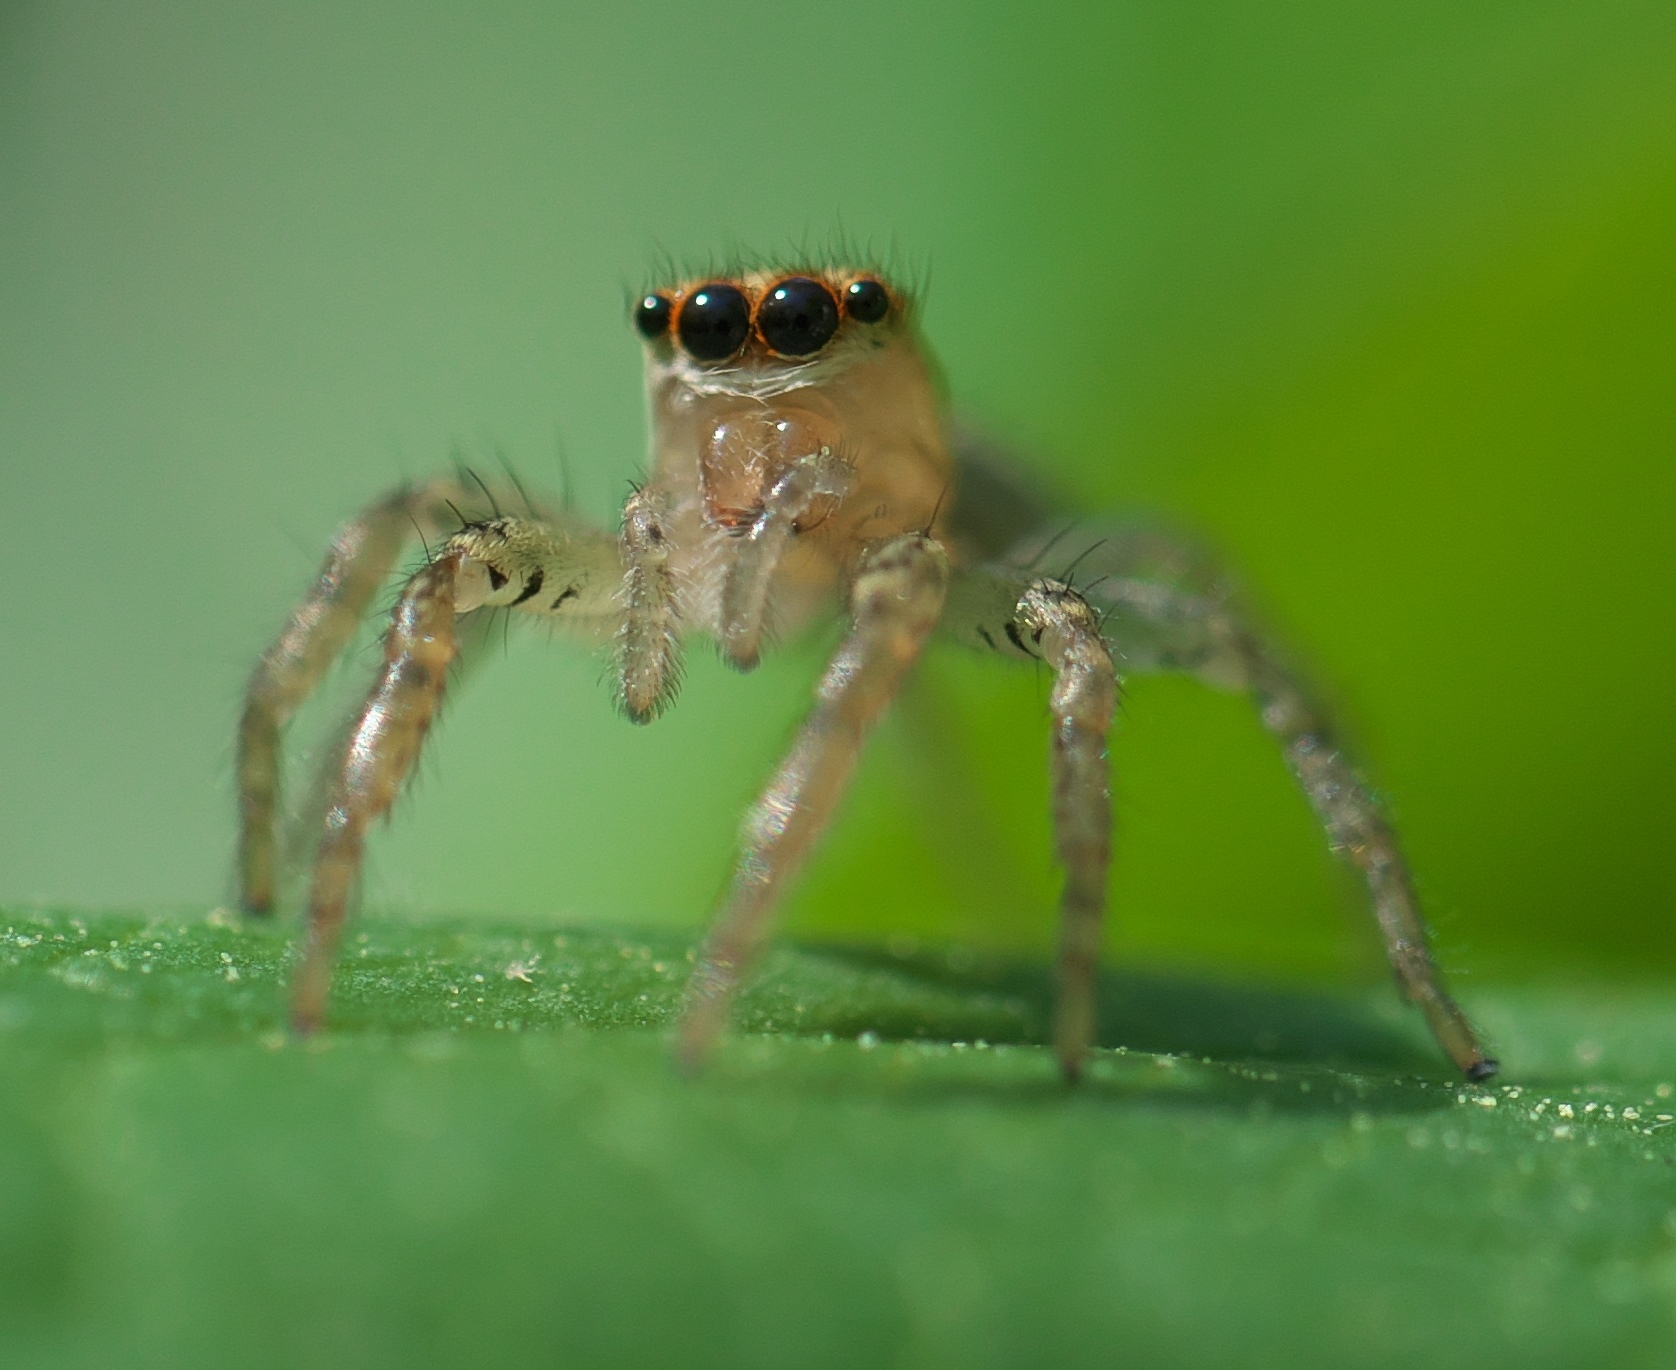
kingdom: Animalia
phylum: Arthropoda
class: Arachnida
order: Araneae
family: Salticidae
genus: Maevia
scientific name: Maevia inclemens
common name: Dimorphic jumper
